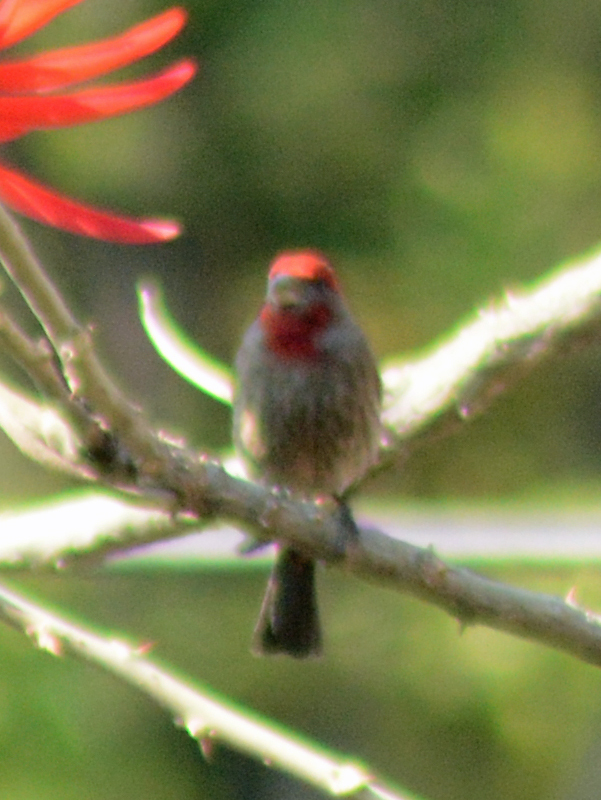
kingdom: Animalia
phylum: Chordata
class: Aves
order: Passeriformes
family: Fringillidae
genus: Haemorhous
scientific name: Haemorhous mexicanus
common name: House finch
